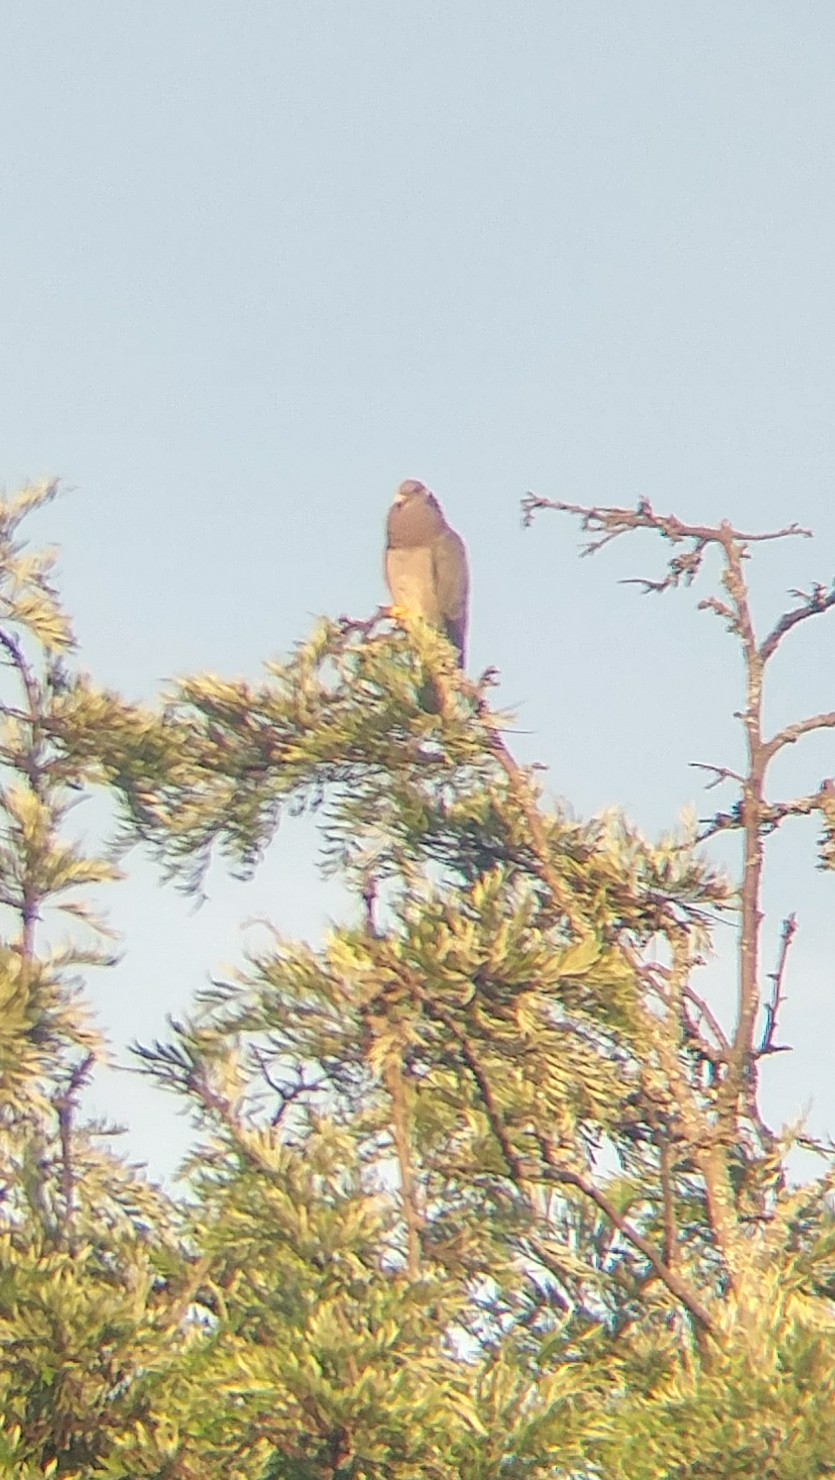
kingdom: Animalia
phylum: Chordata
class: Aves
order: Columbiformes
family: Columbidae
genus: Patagioenas
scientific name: Patagioenas fasciata
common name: Band-tailed pigeon
